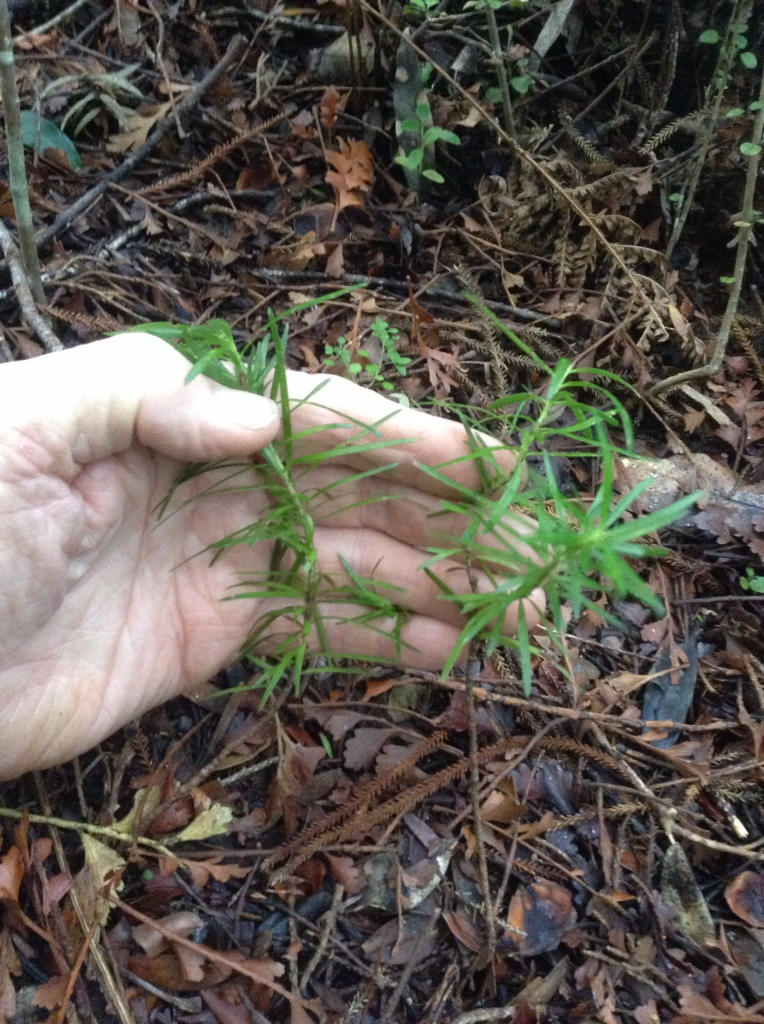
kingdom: Plantae
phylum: Tracheophyta
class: Pinopsida
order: Pinales
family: Podocarpaceae
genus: Halocarpus
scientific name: Halocarpus kirkii
